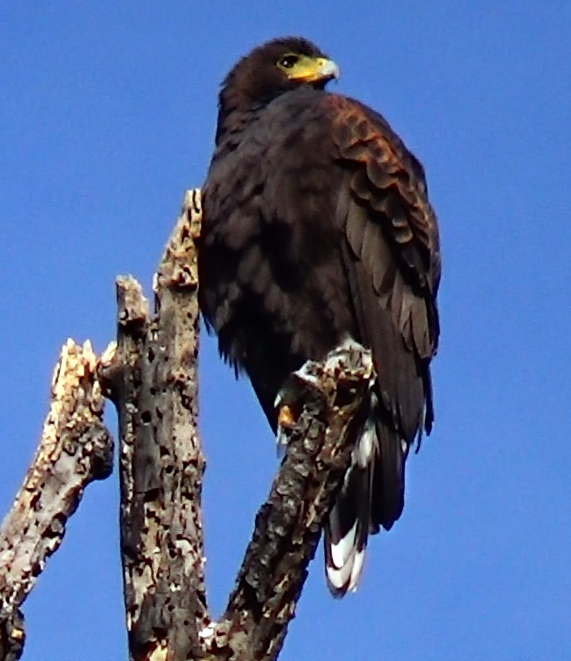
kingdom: Animalia
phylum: Chordata
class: Aves
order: Accipitriformes
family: Accipitridae
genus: Parabuteo
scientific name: Parabuteo unicinctus
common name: Harris's hawk
